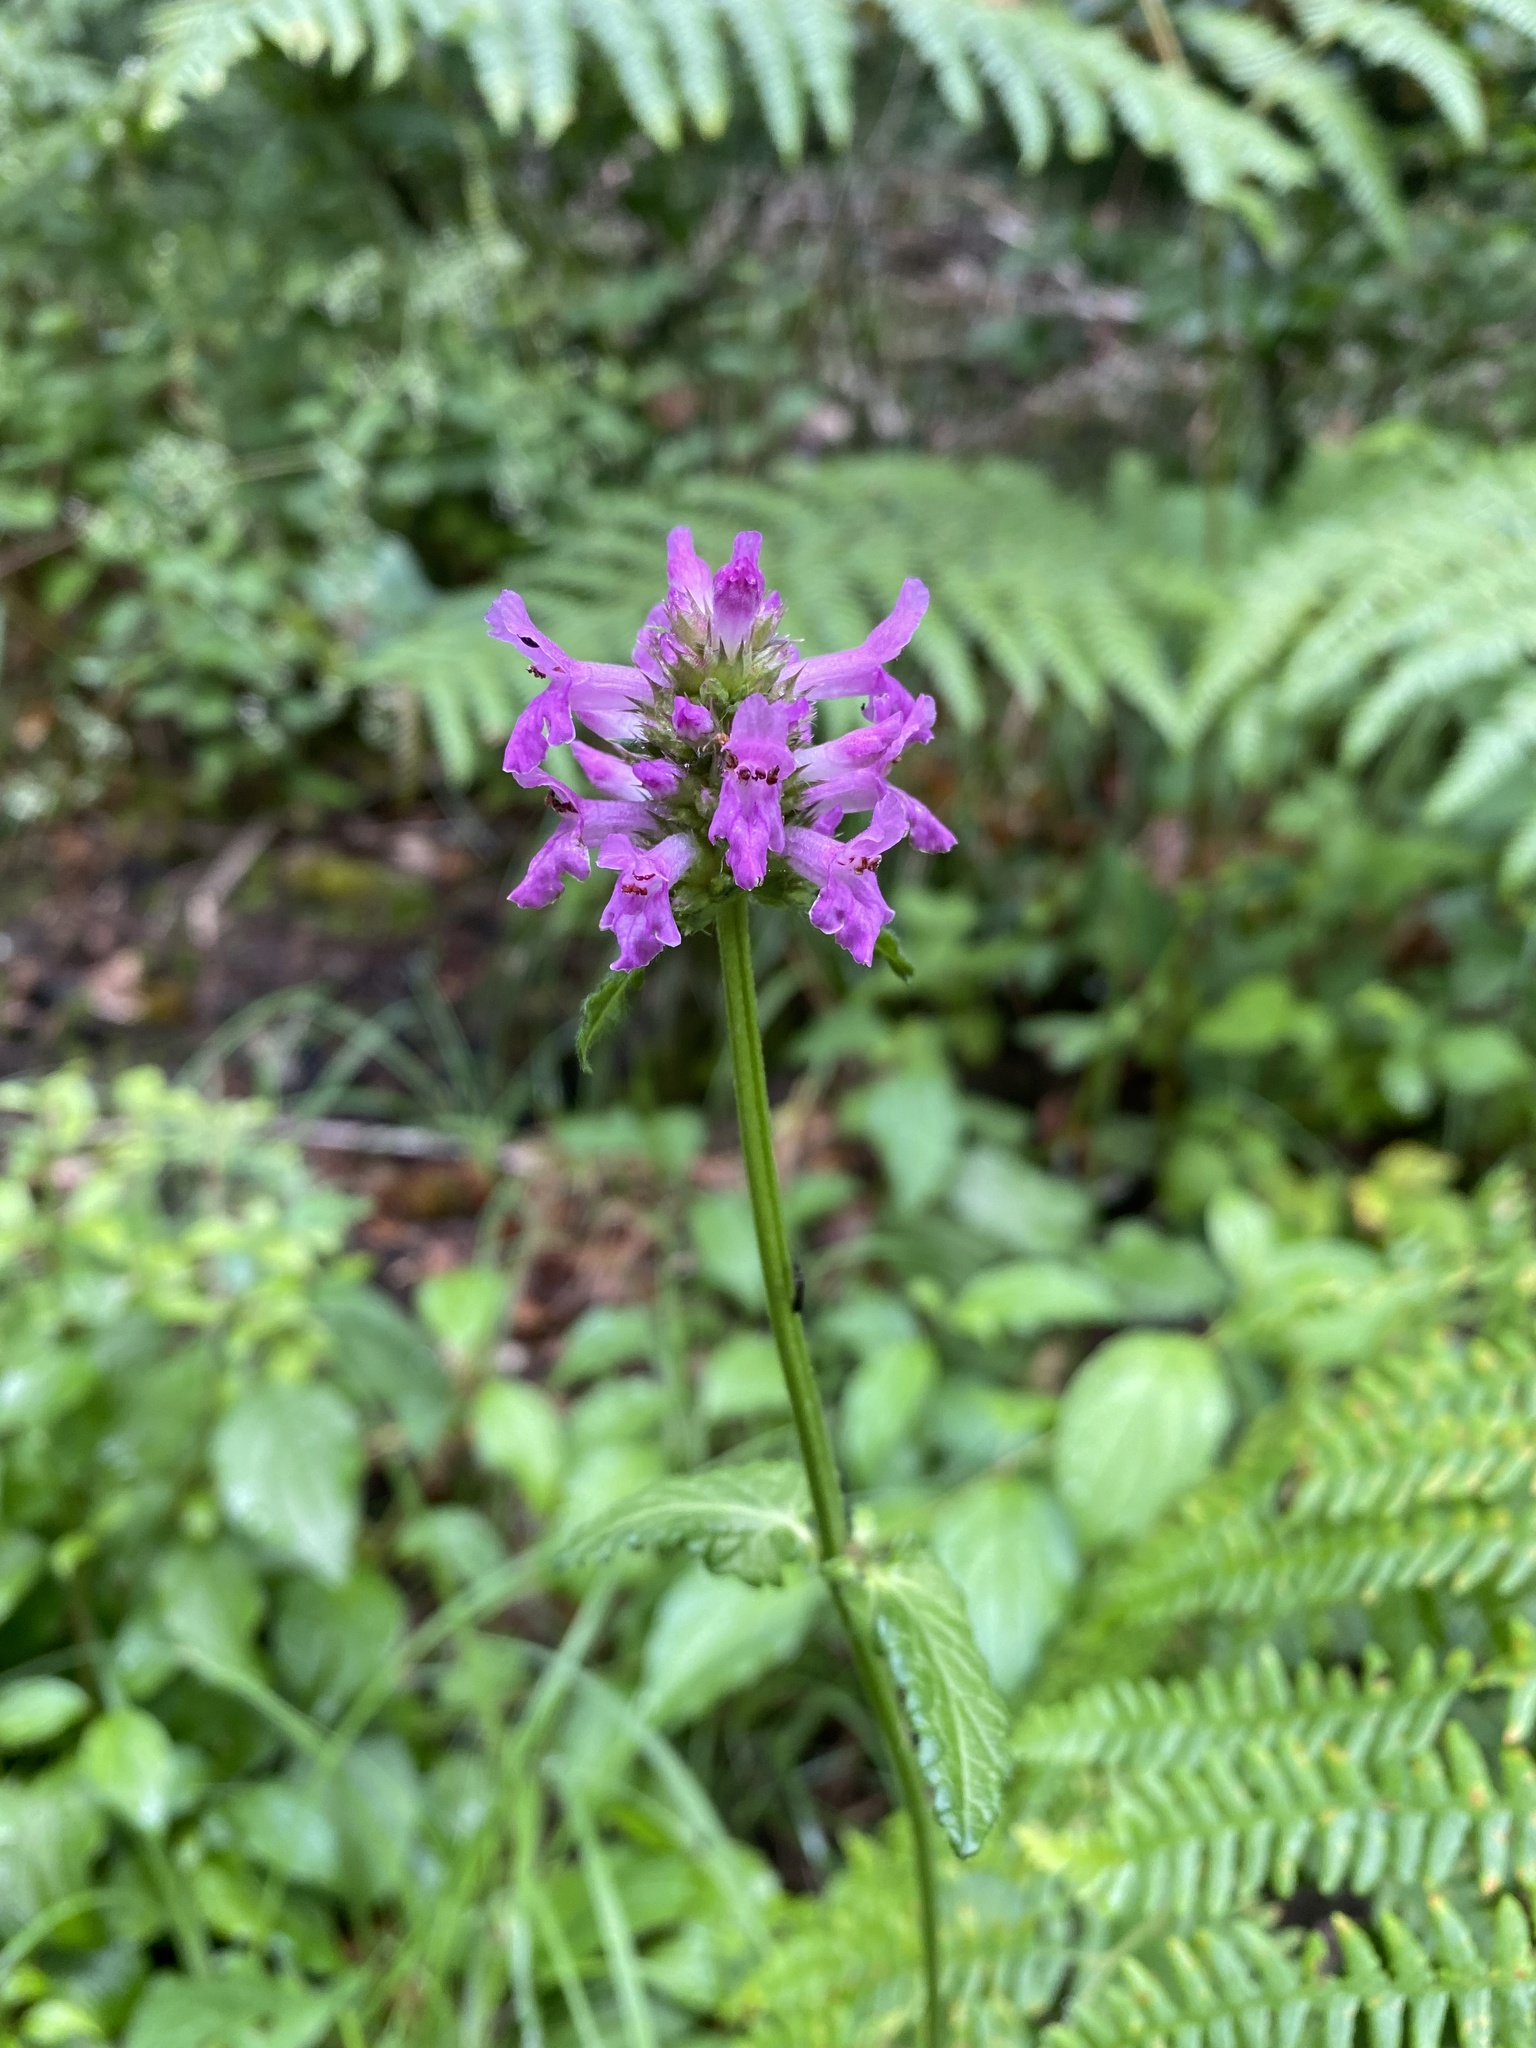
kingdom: Plantae
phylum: Tracheophyta
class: Magnoliopsida
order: Lamiales
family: Lamiaceae
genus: Betonica
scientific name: Betonica officinalis
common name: Bishop's-wort
